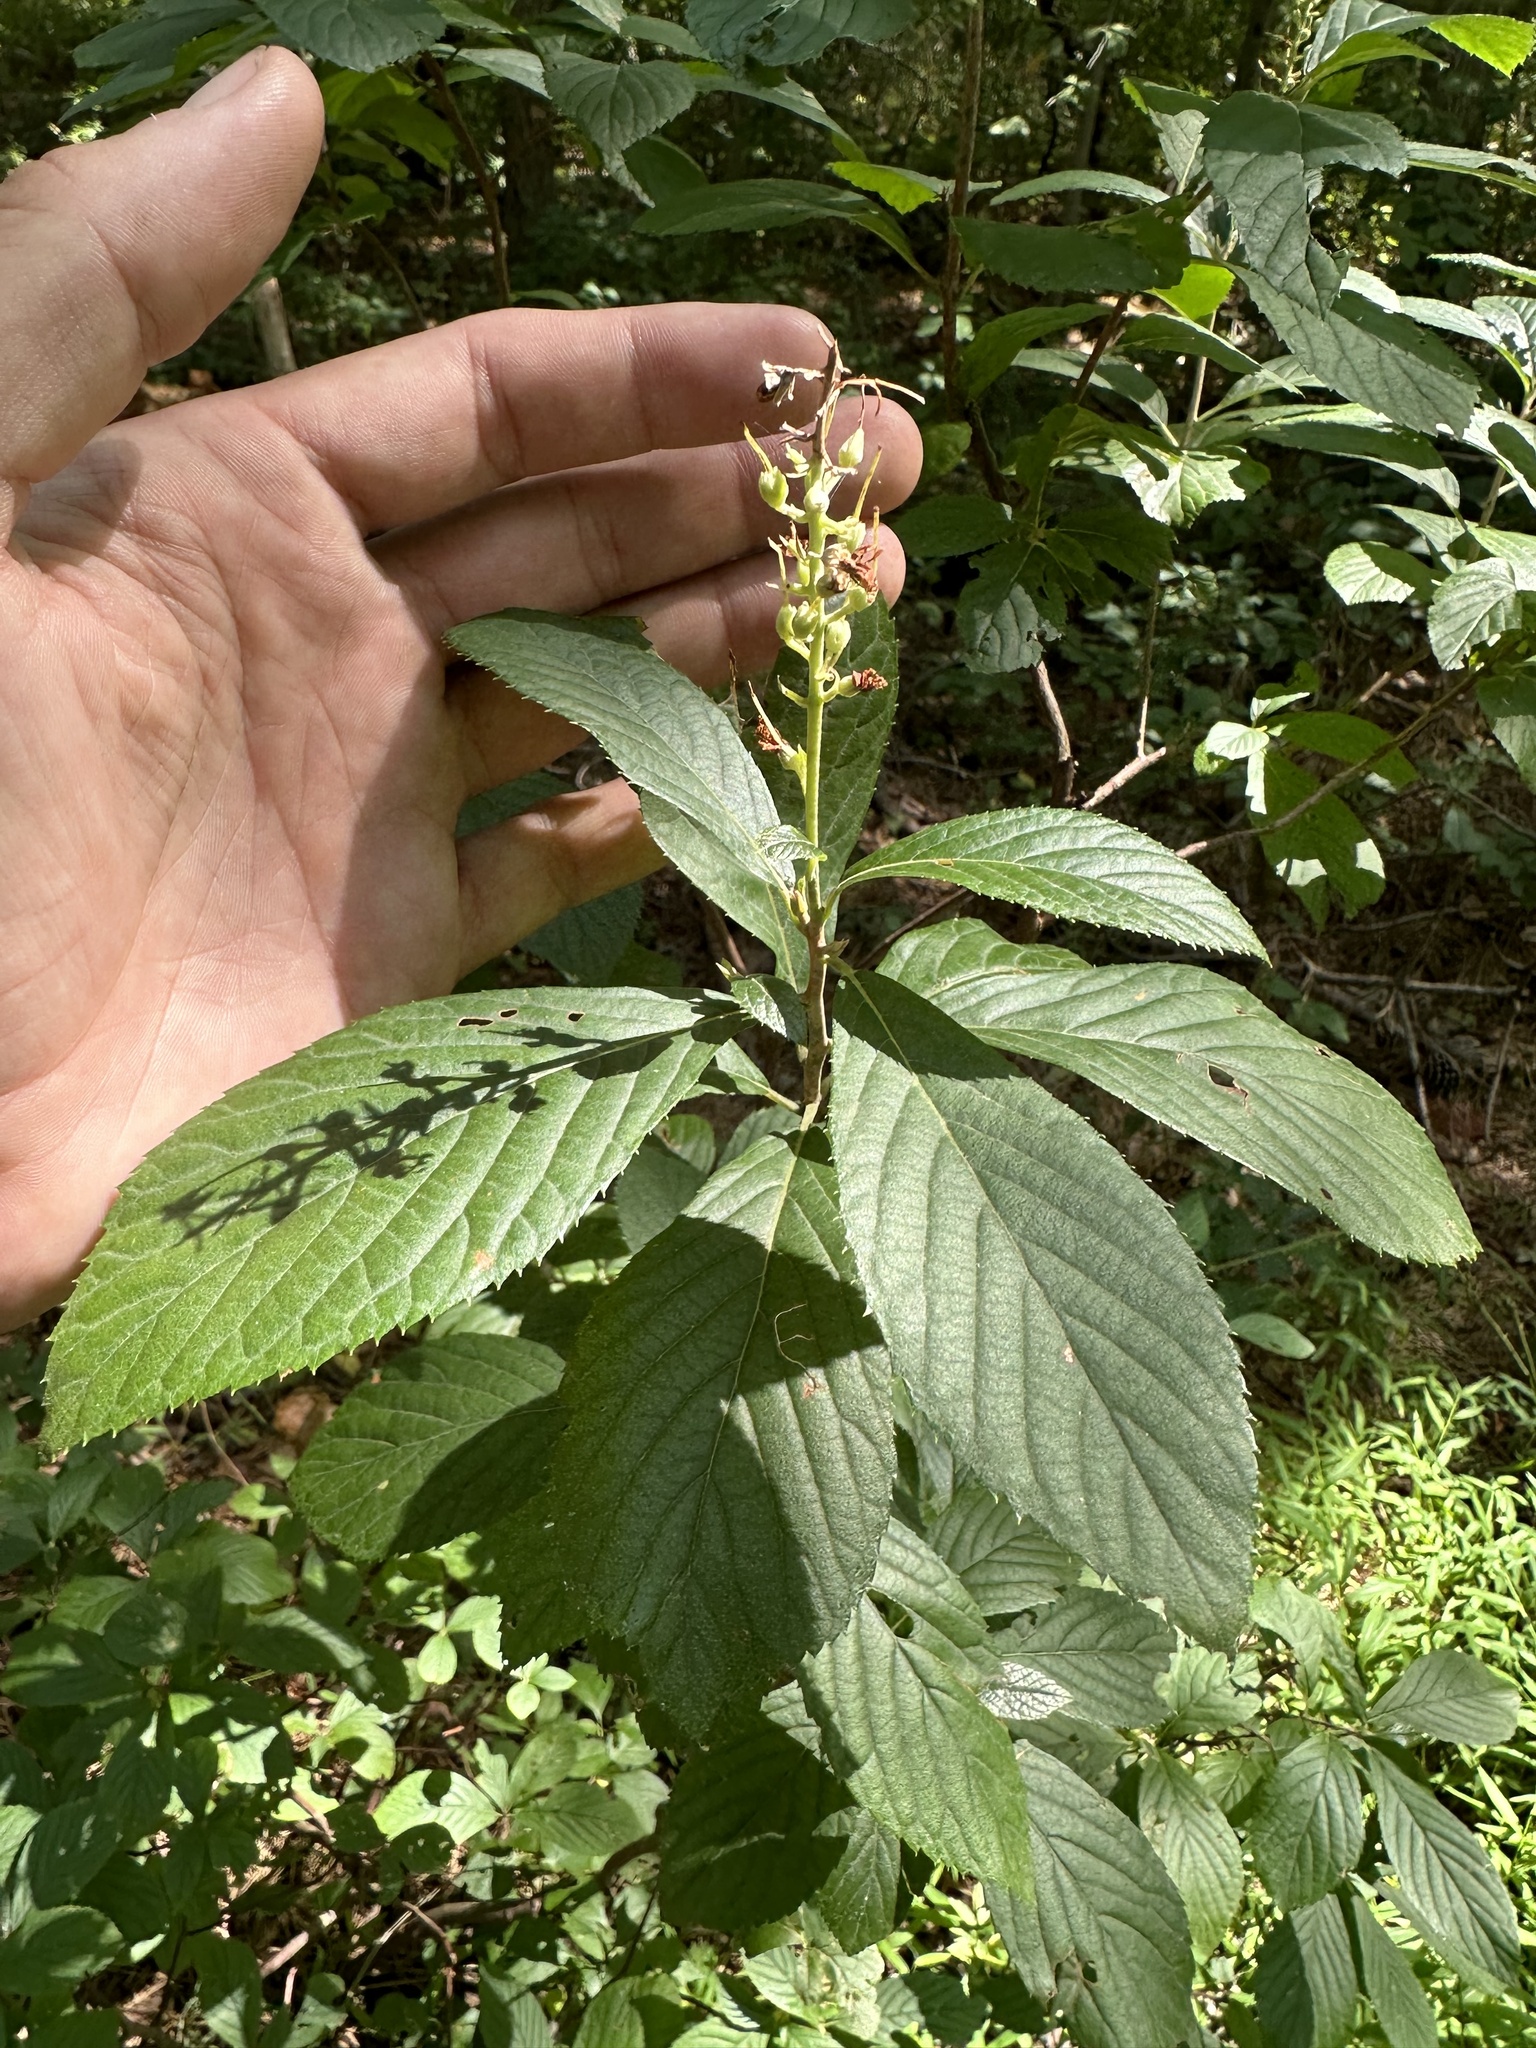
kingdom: Plantae
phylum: Tracheophyta
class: Magnoliopsida
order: Ericales
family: Clethraceae
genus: Clethra
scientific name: Clethra alnifolia
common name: Sweet pepperbush
